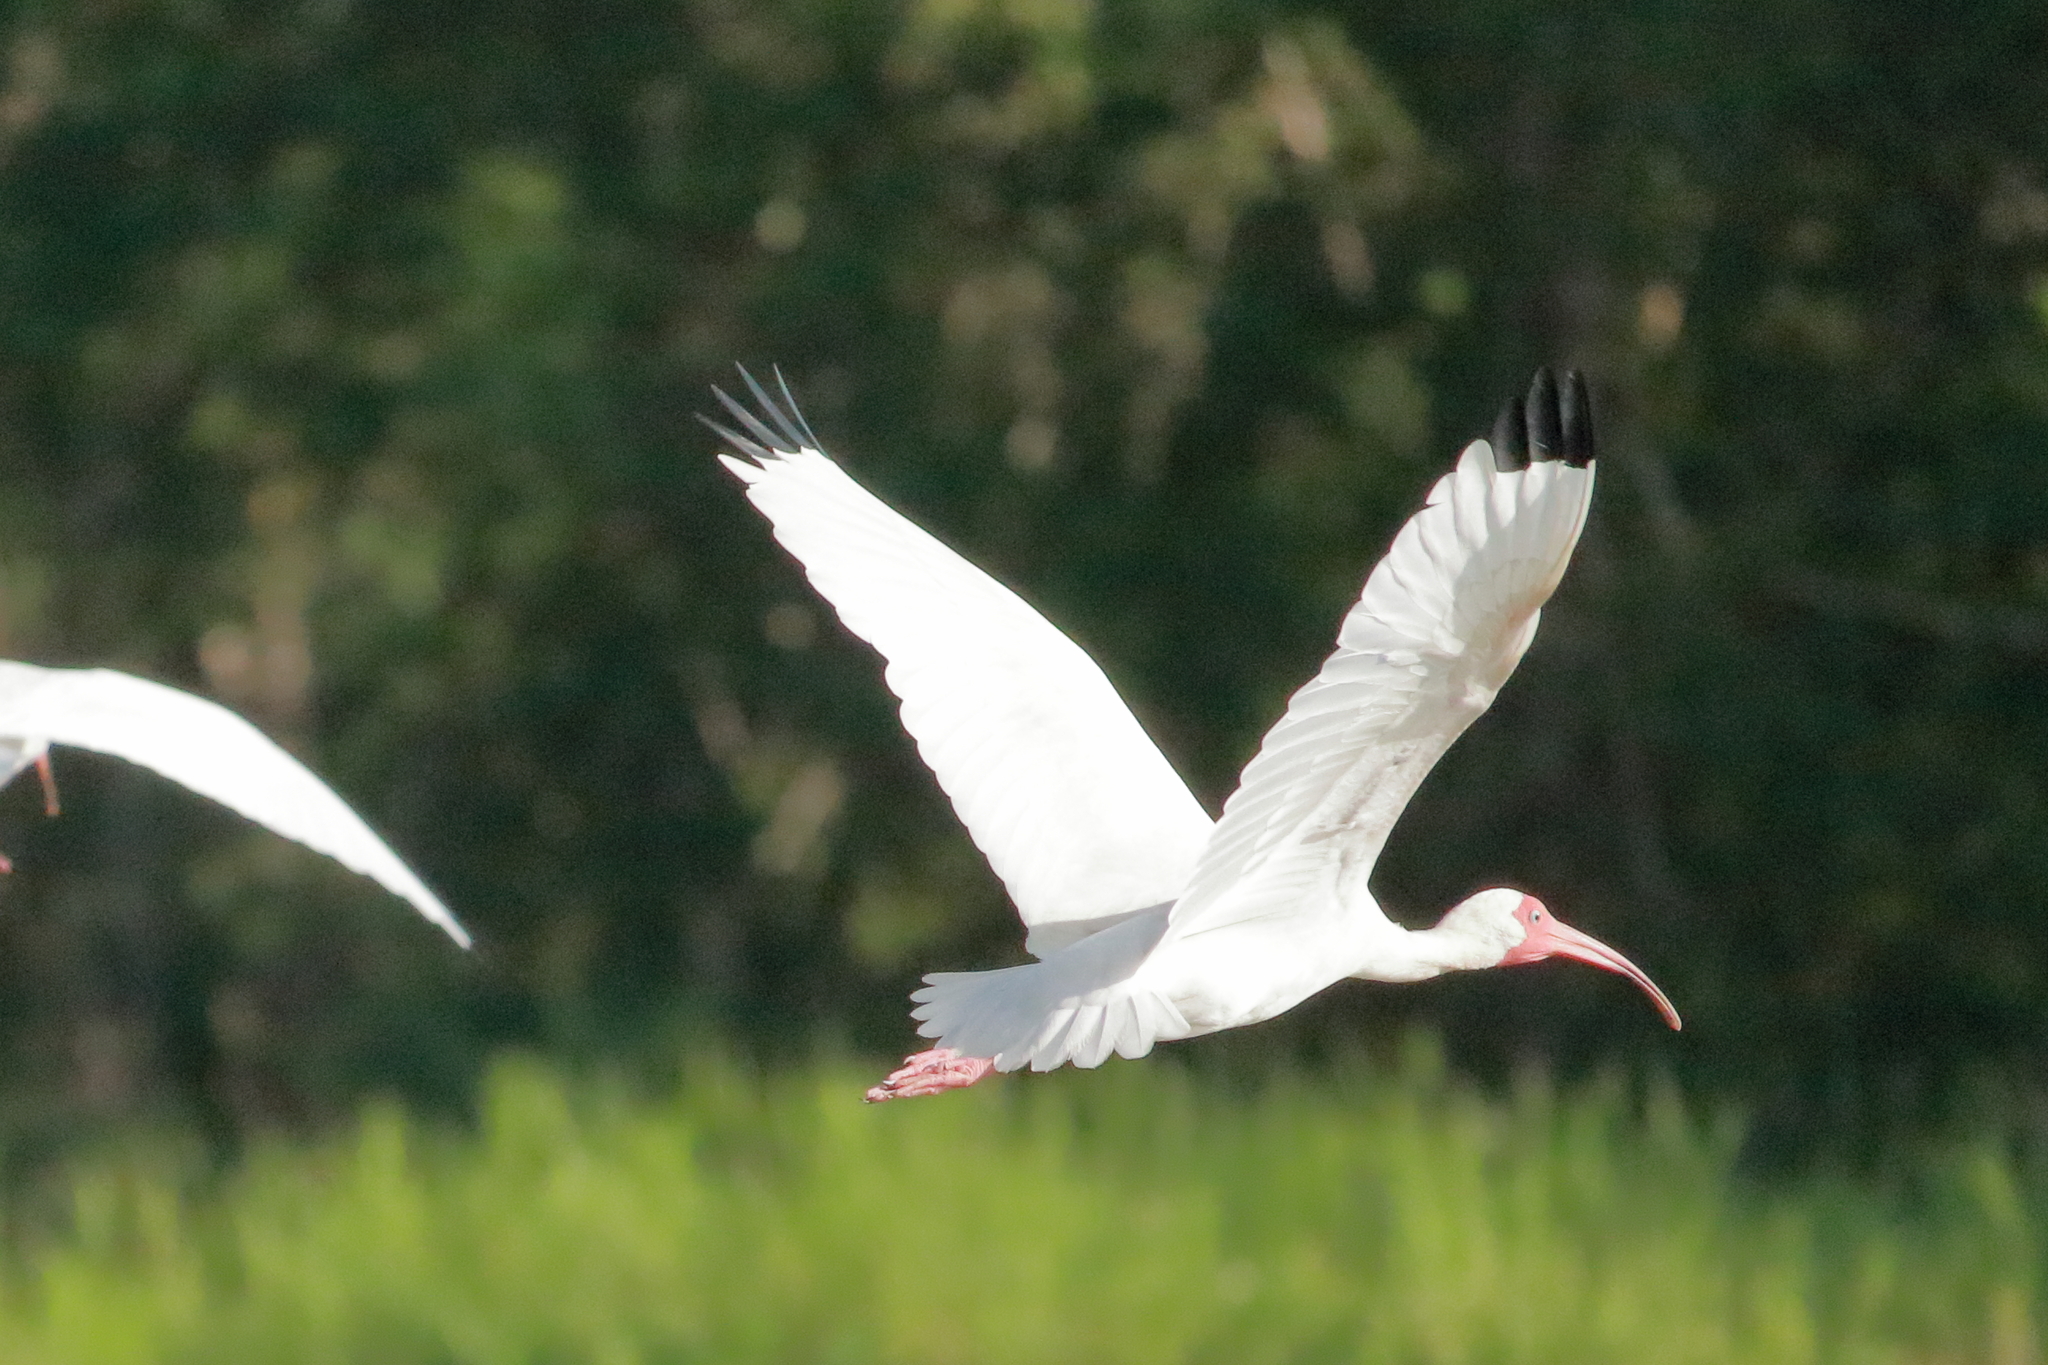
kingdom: Animalia
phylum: Chordata
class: Aves
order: Pelecaniformes
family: Threskiornithidae
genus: Eudocimus
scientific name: Eudocimus albus
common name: White ibis
